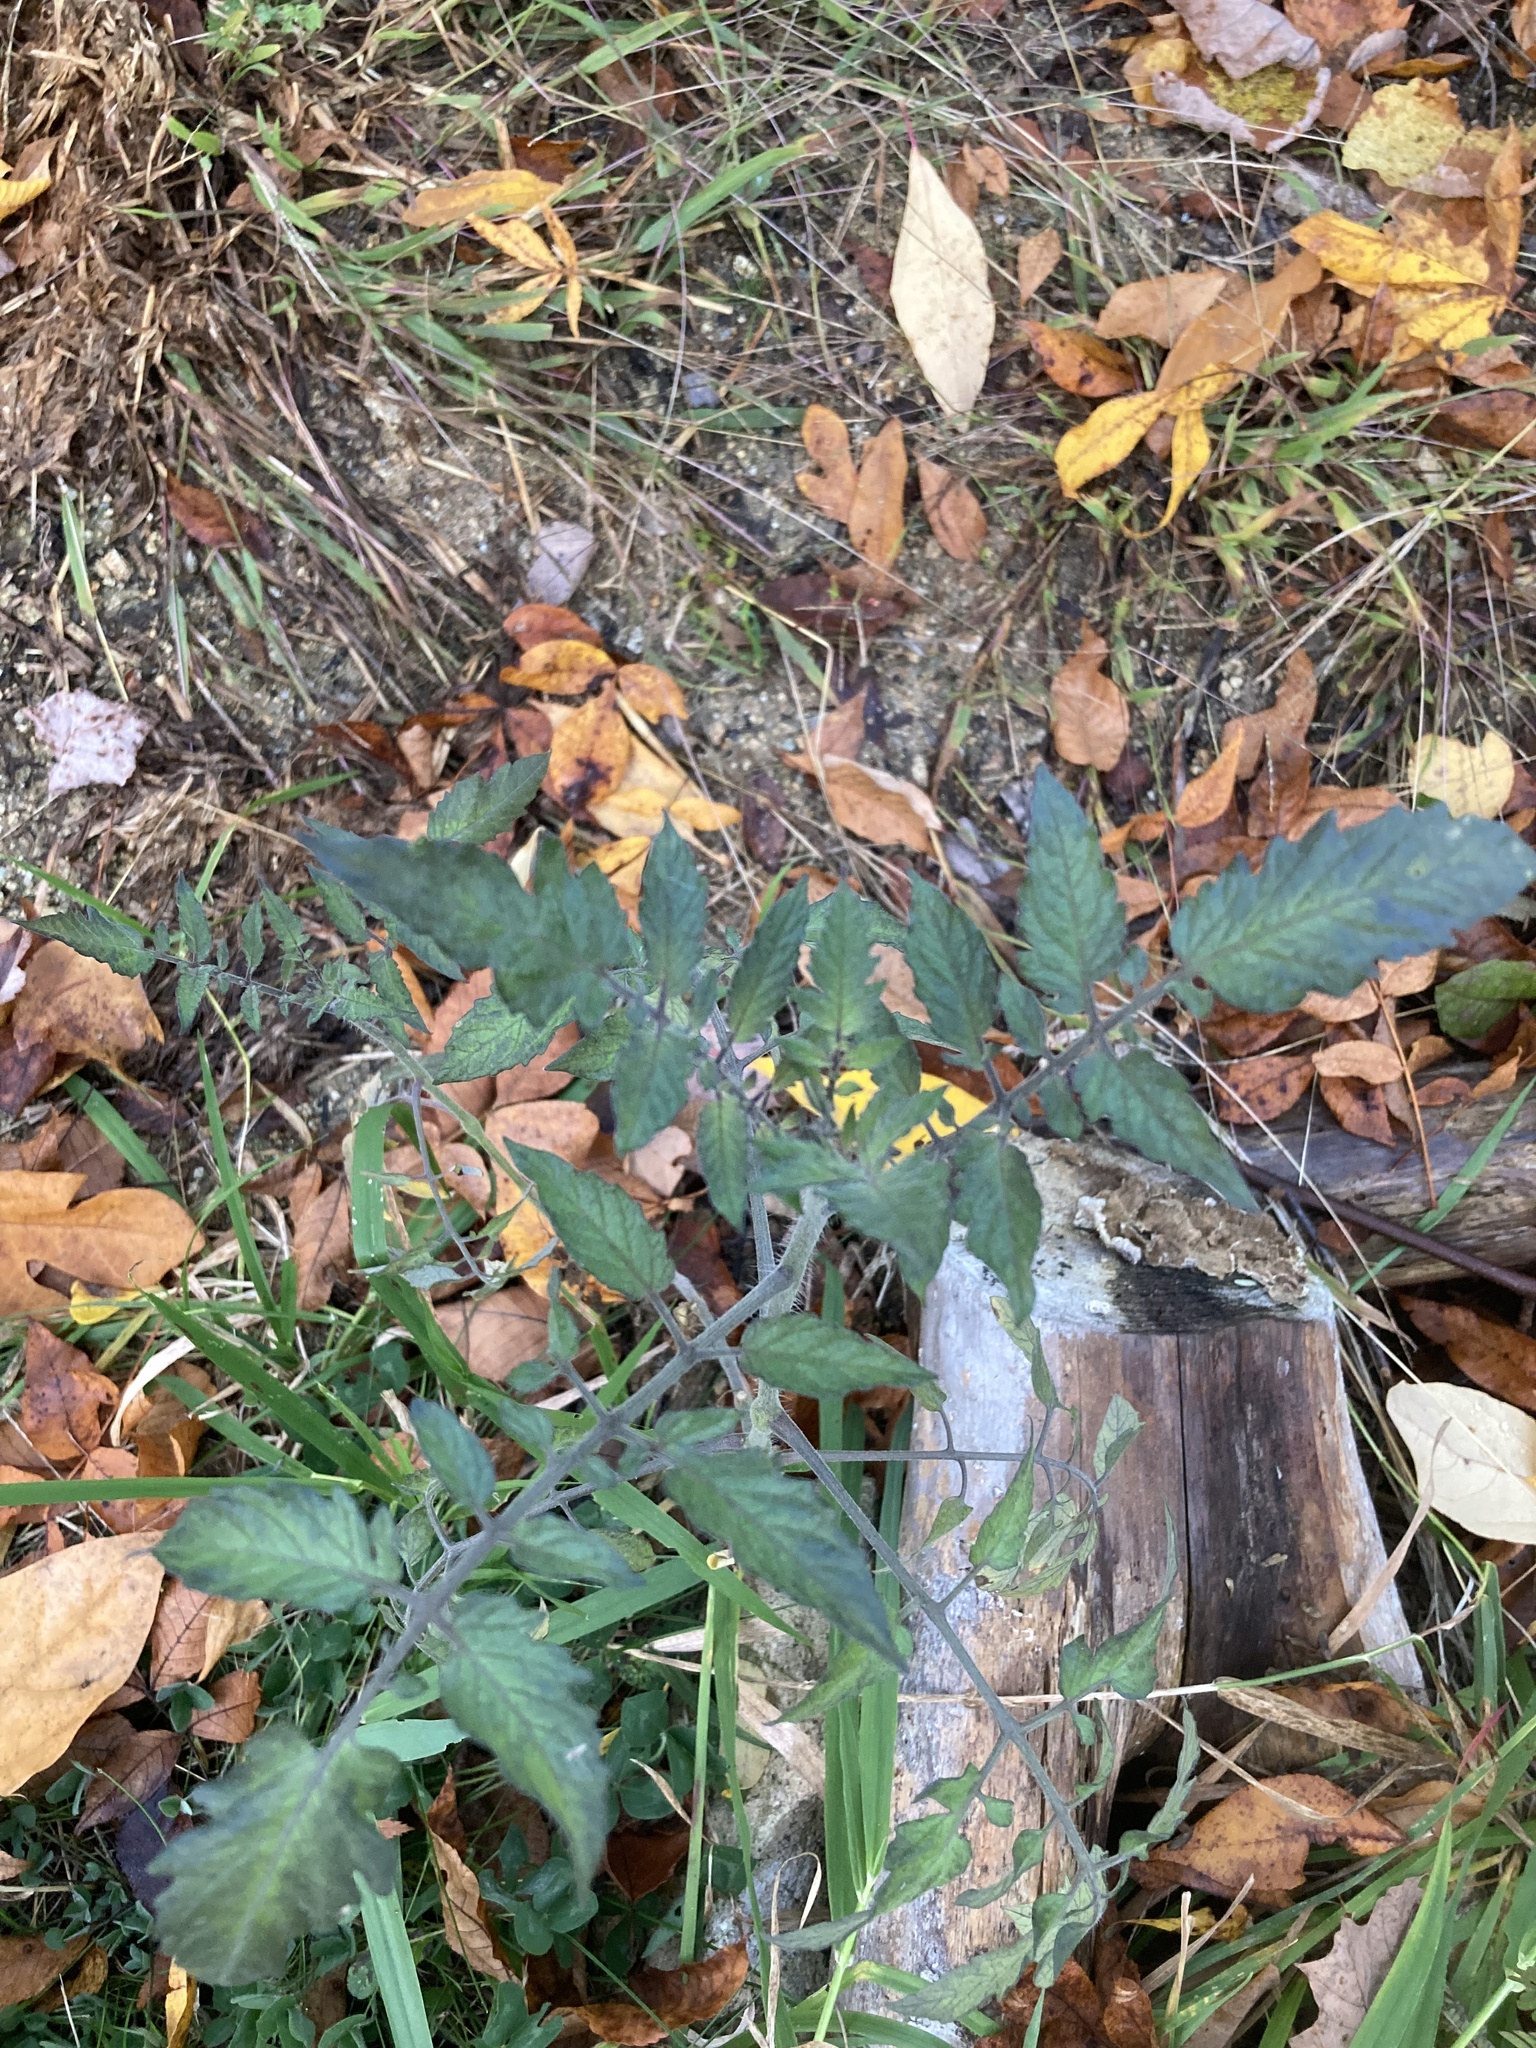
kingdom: Plantae
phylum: Tracheophyta
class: Magnoliopsida
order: Solanales
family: Solanaceae
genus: Solanum
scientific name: Solanum lycopersicum
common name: Garden tomato
